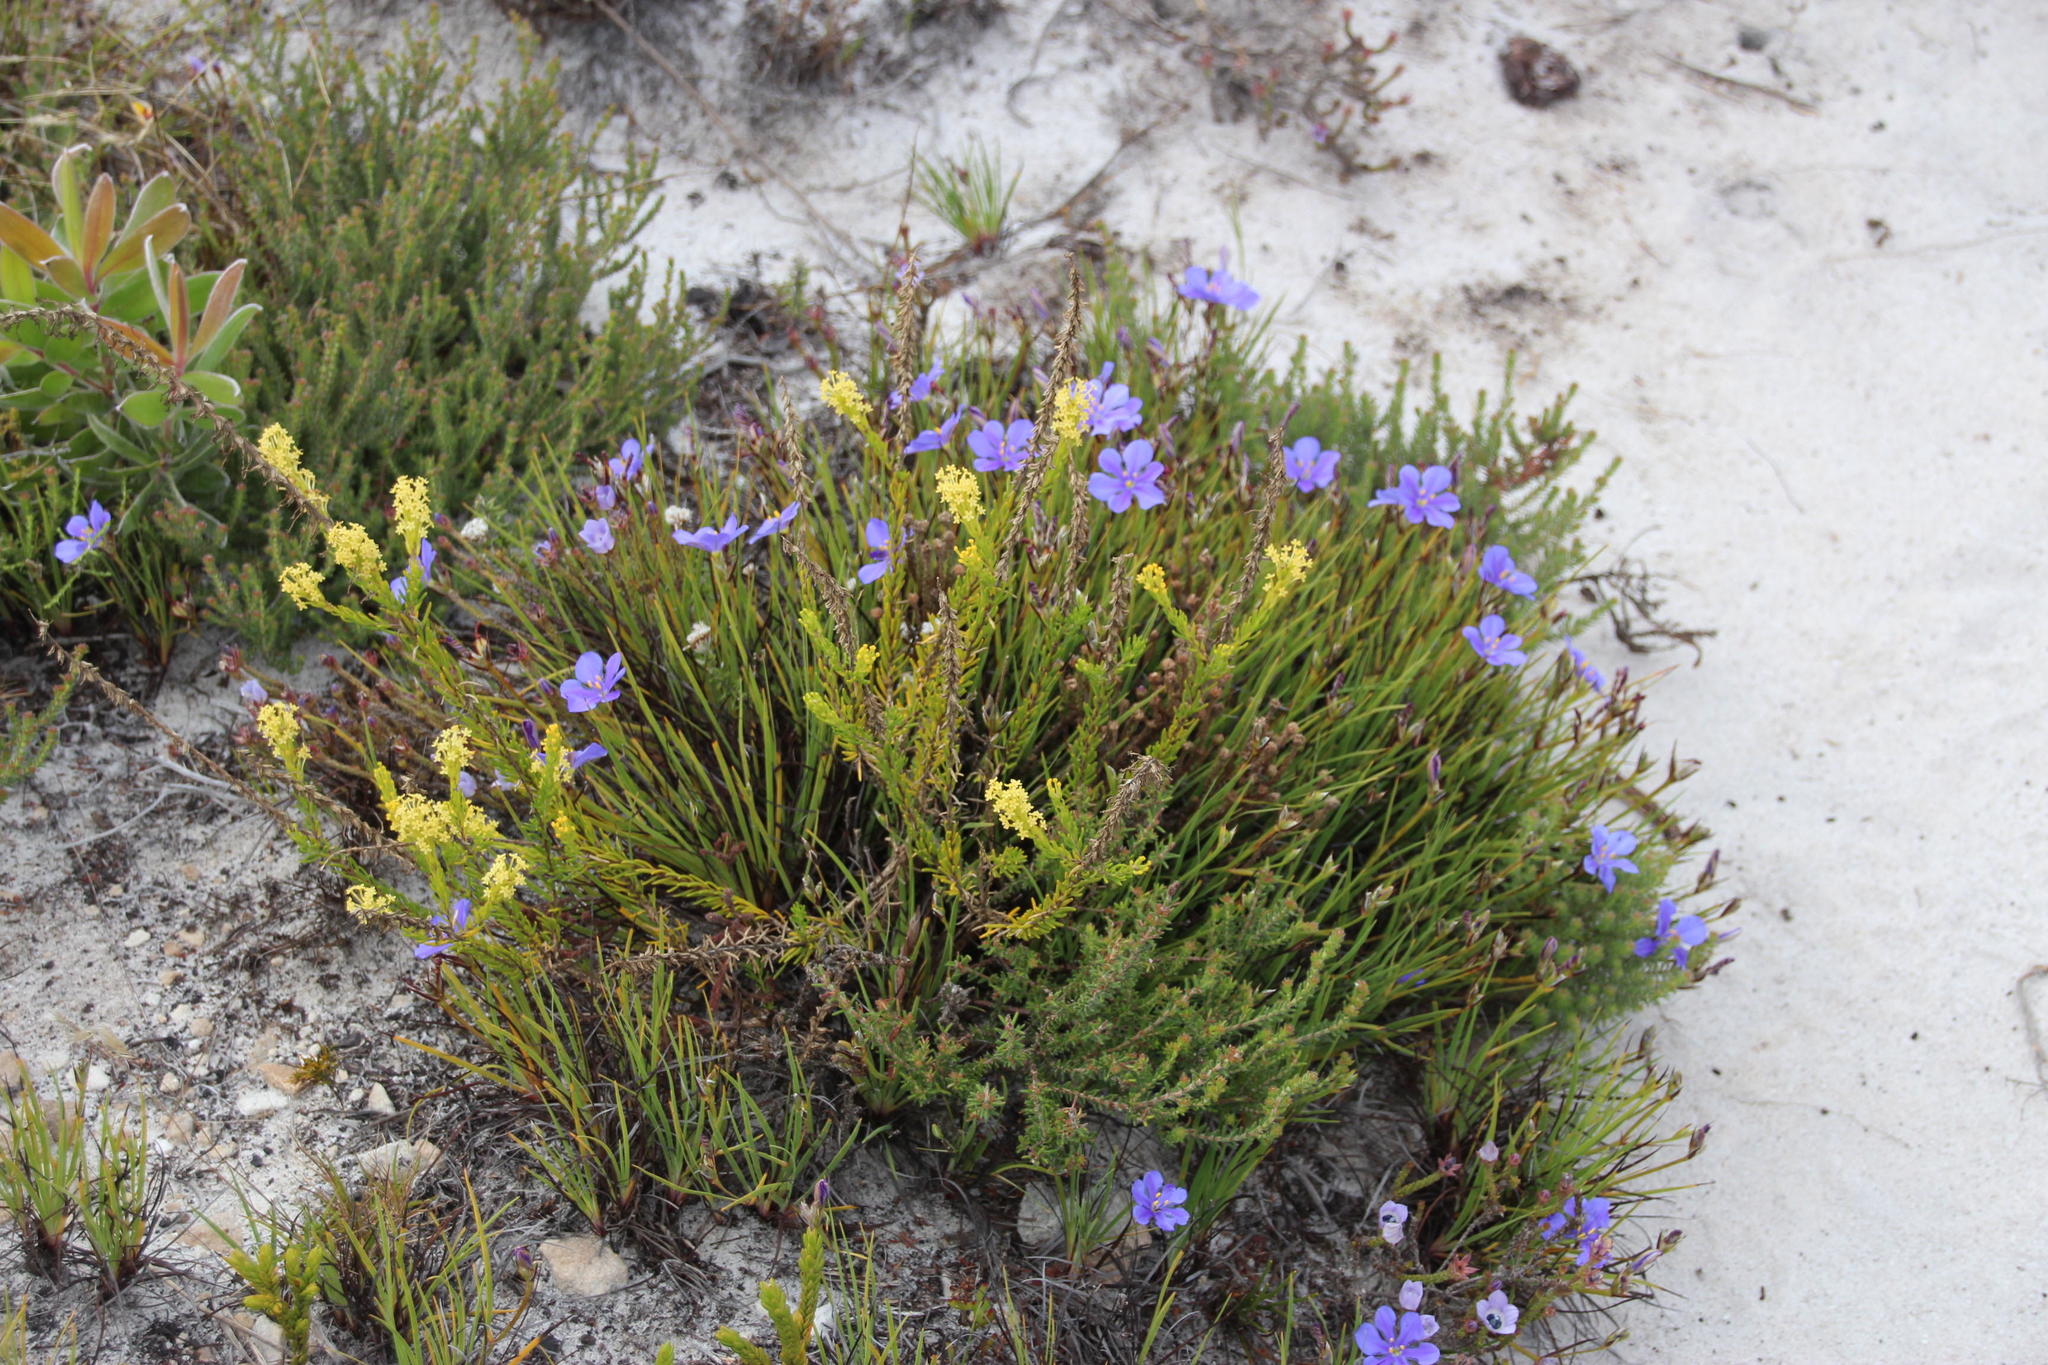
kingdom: Plantae
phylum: Tracheophyta
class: Magnoliopsida
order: Lamiales
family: Scrophulariaceae
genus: Microdon
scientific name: Microdon dubius
